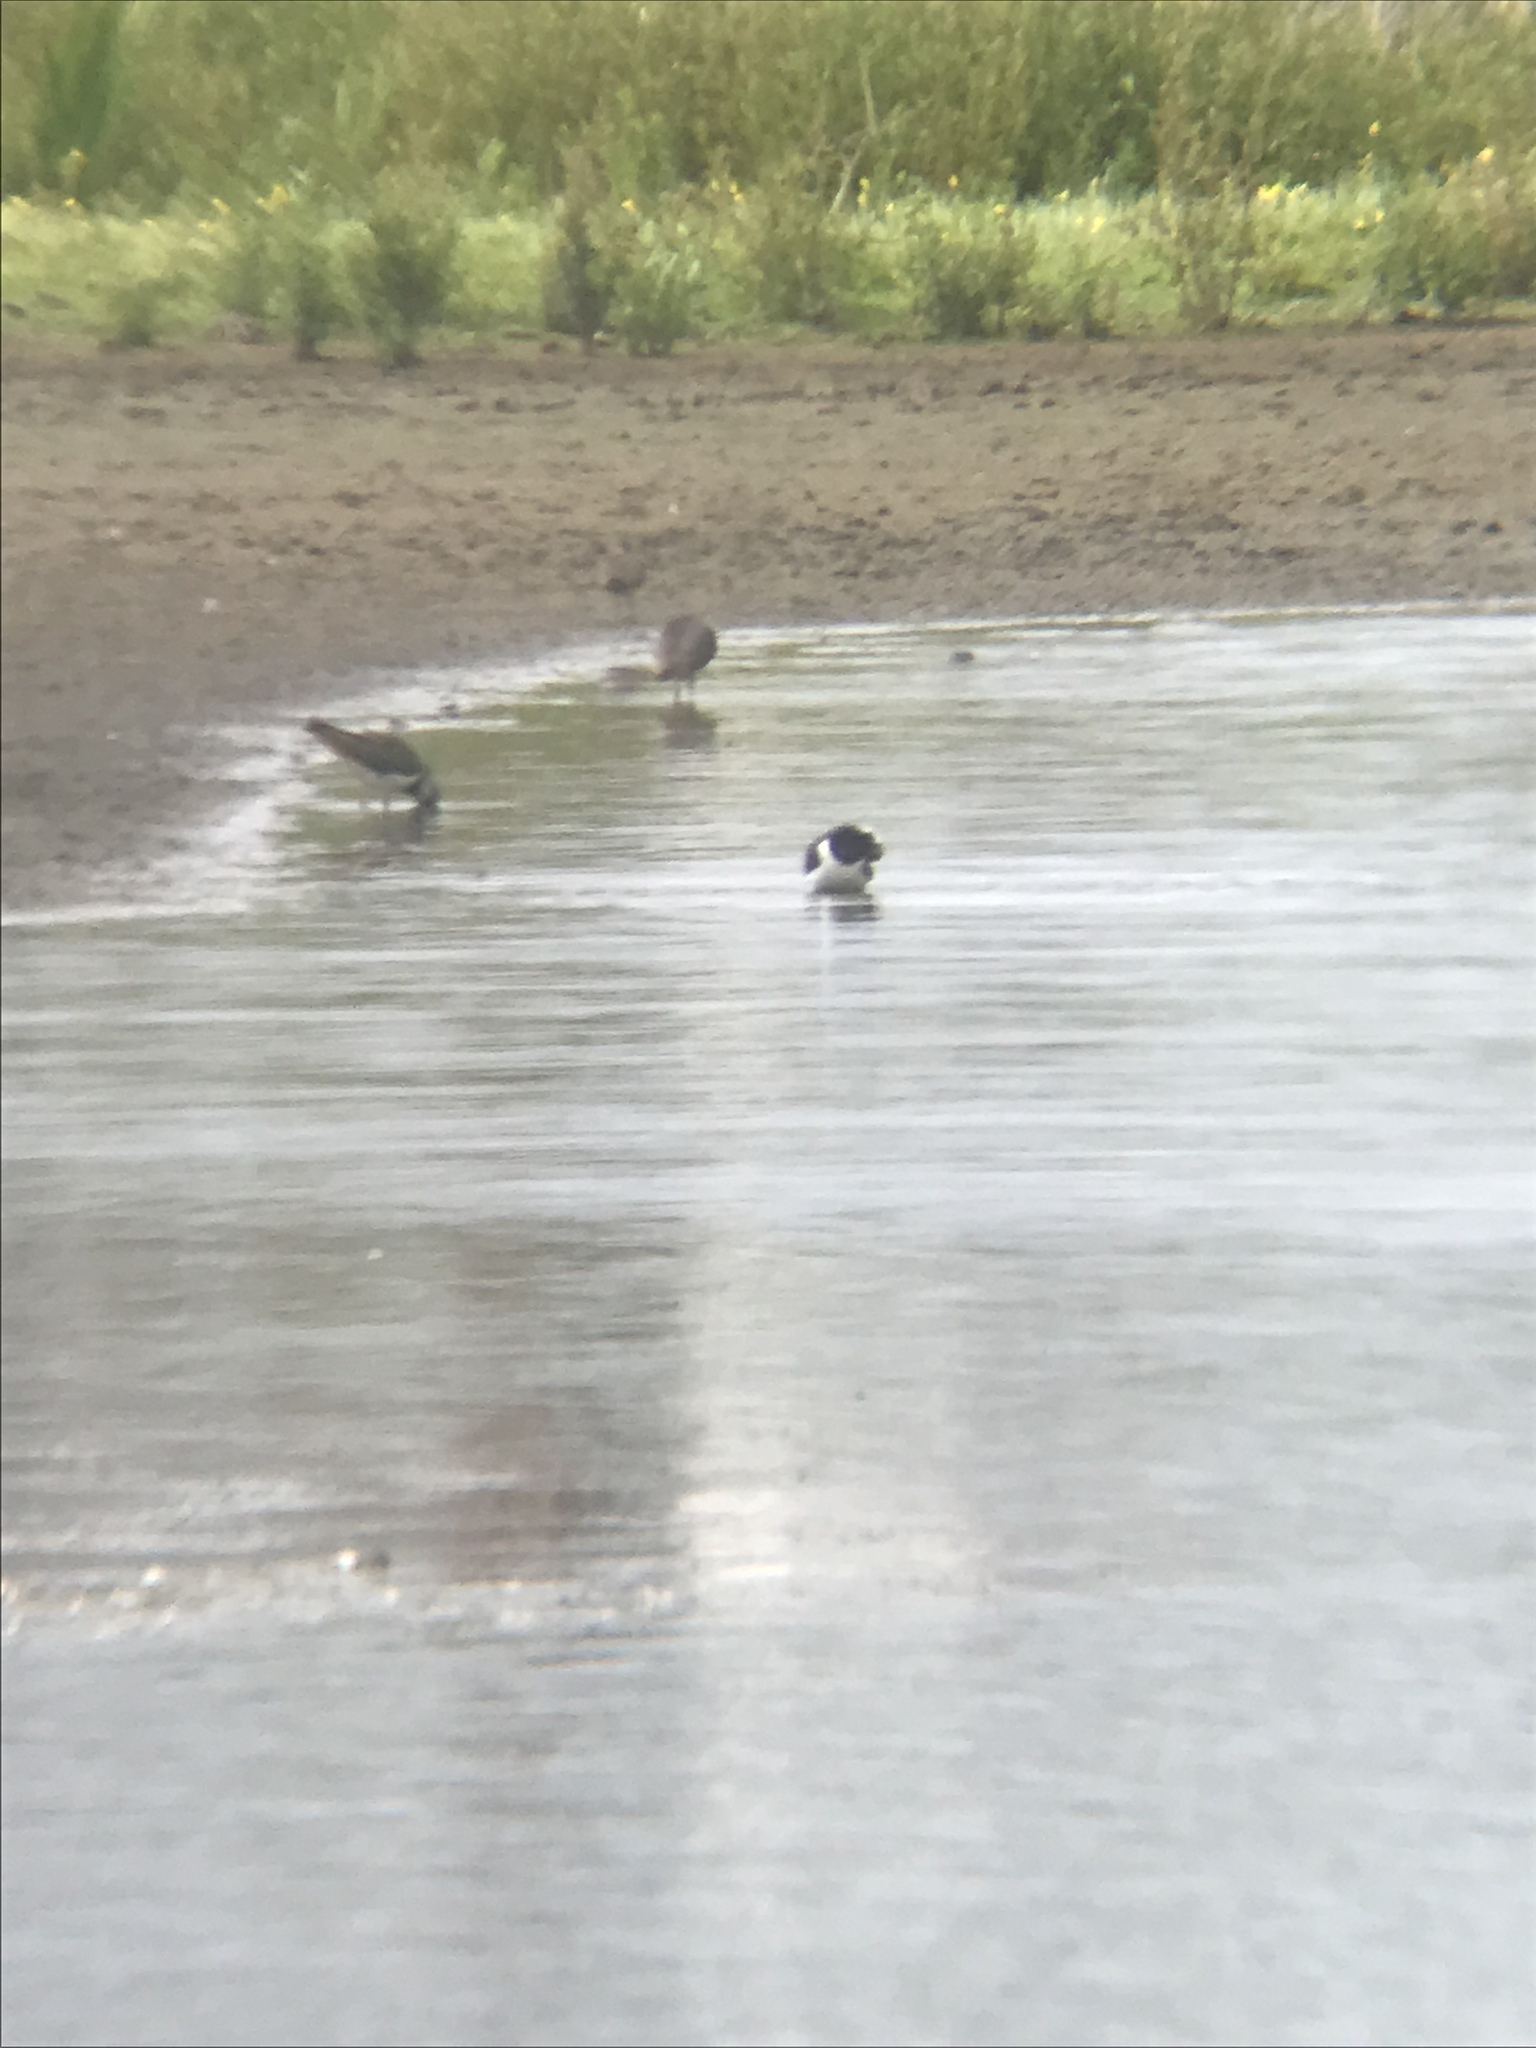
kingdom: Animalia
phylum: Chordata
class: Aves
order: Charadriiformes
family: Charadriidae
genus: Vanellus
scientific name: Vanellus vanellus
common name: Northern lapwing
